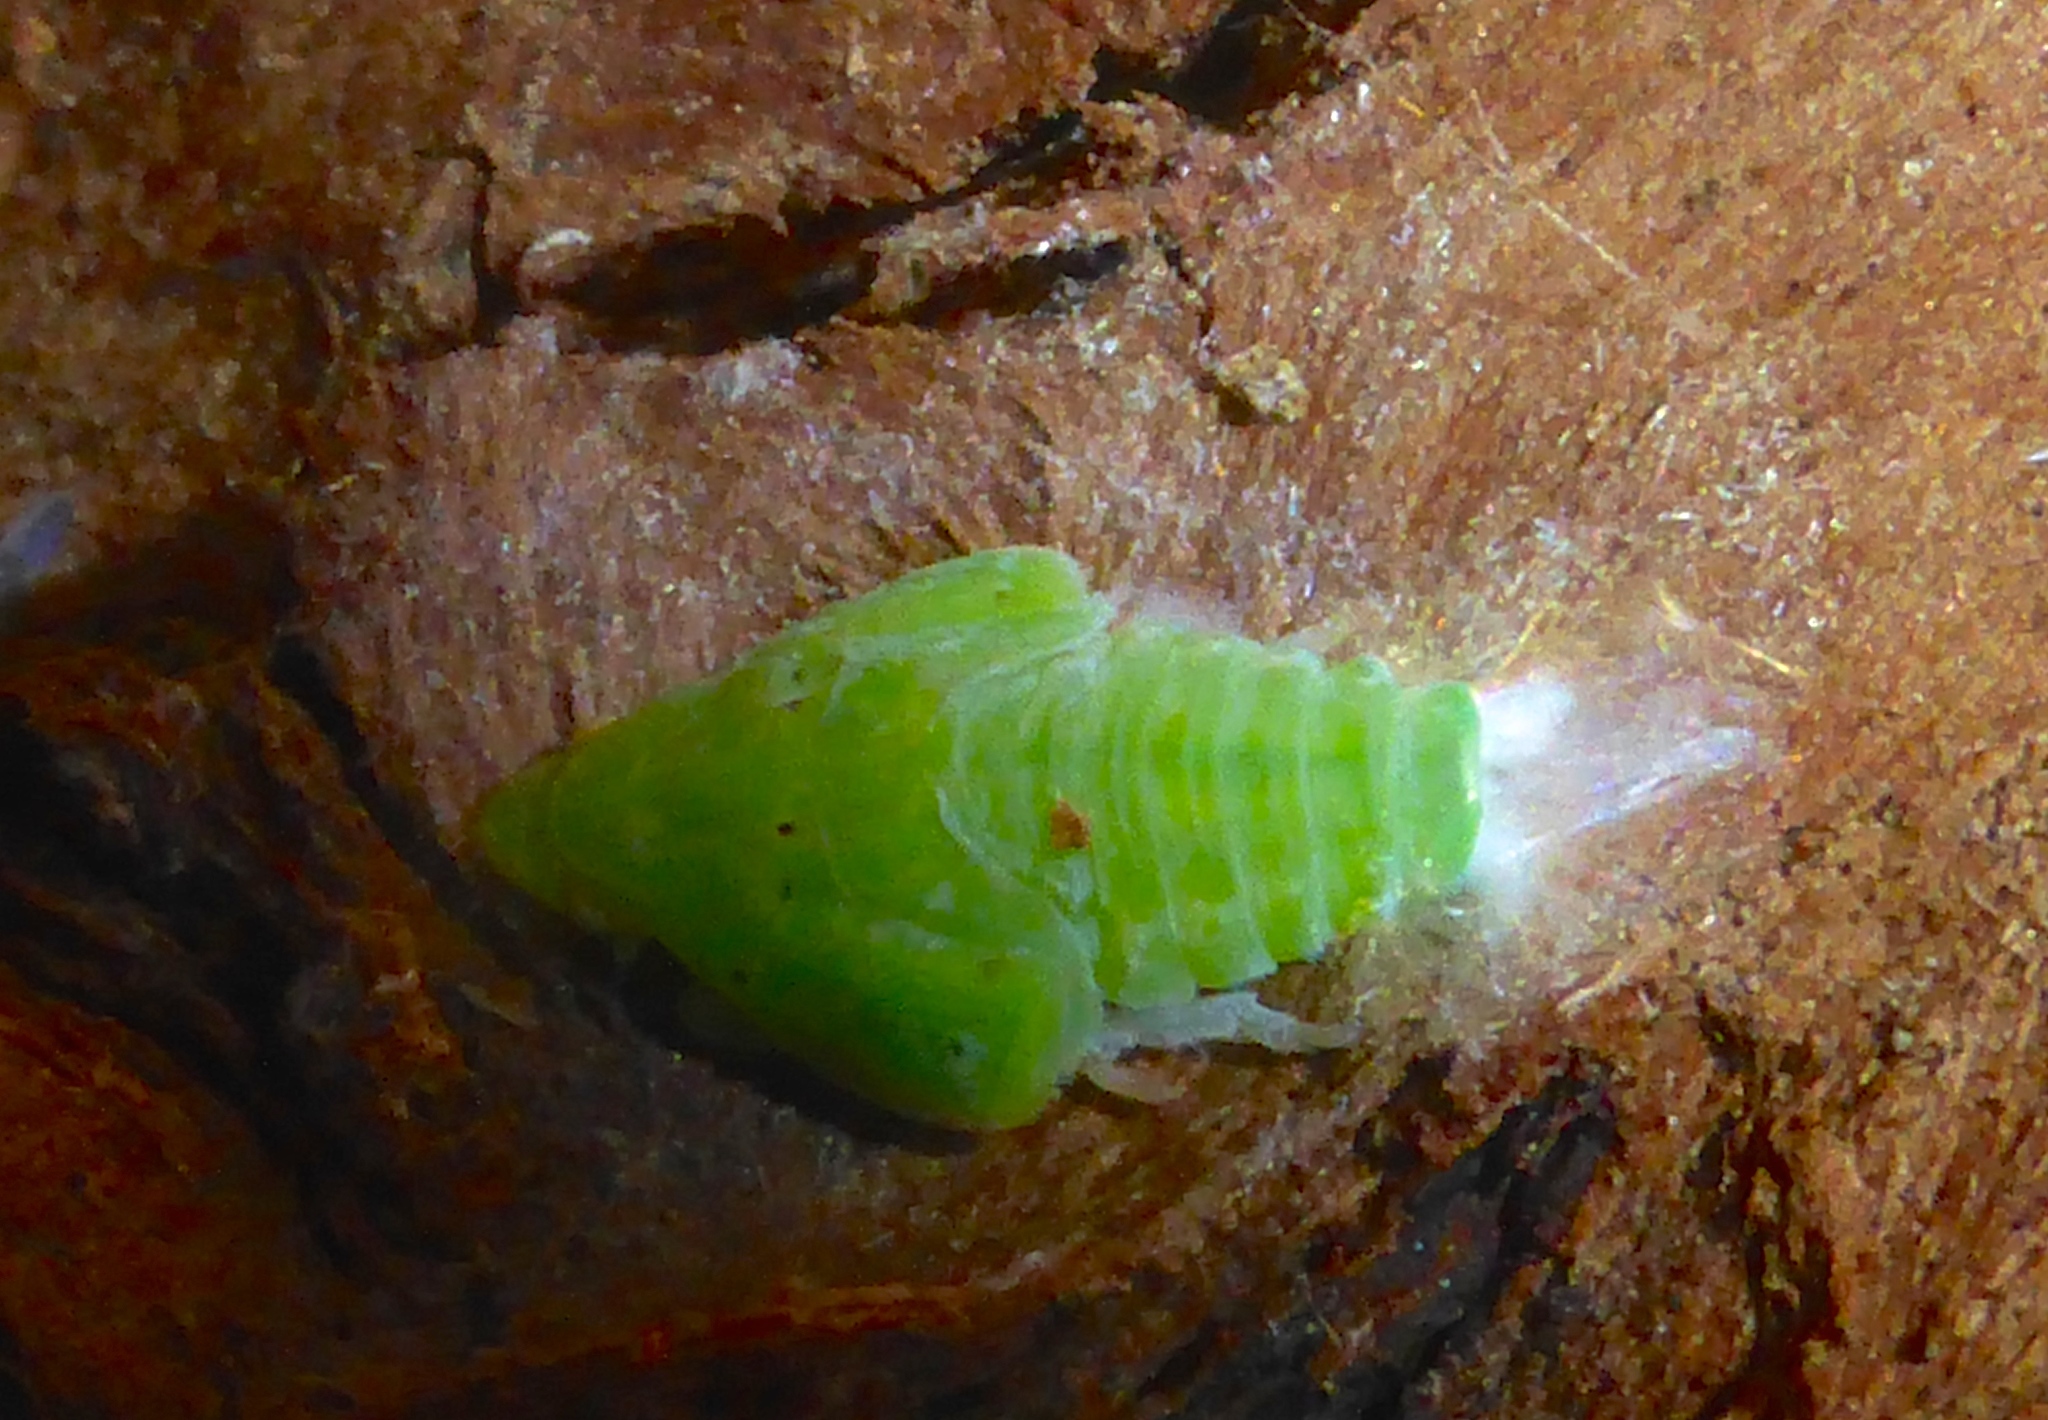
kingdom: Animalia
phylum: Arthropoda
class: Insecta
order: Hemiptera
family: Flatidae
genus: Siphanta
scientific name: Siphanta acuta
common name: Torpedo bug
